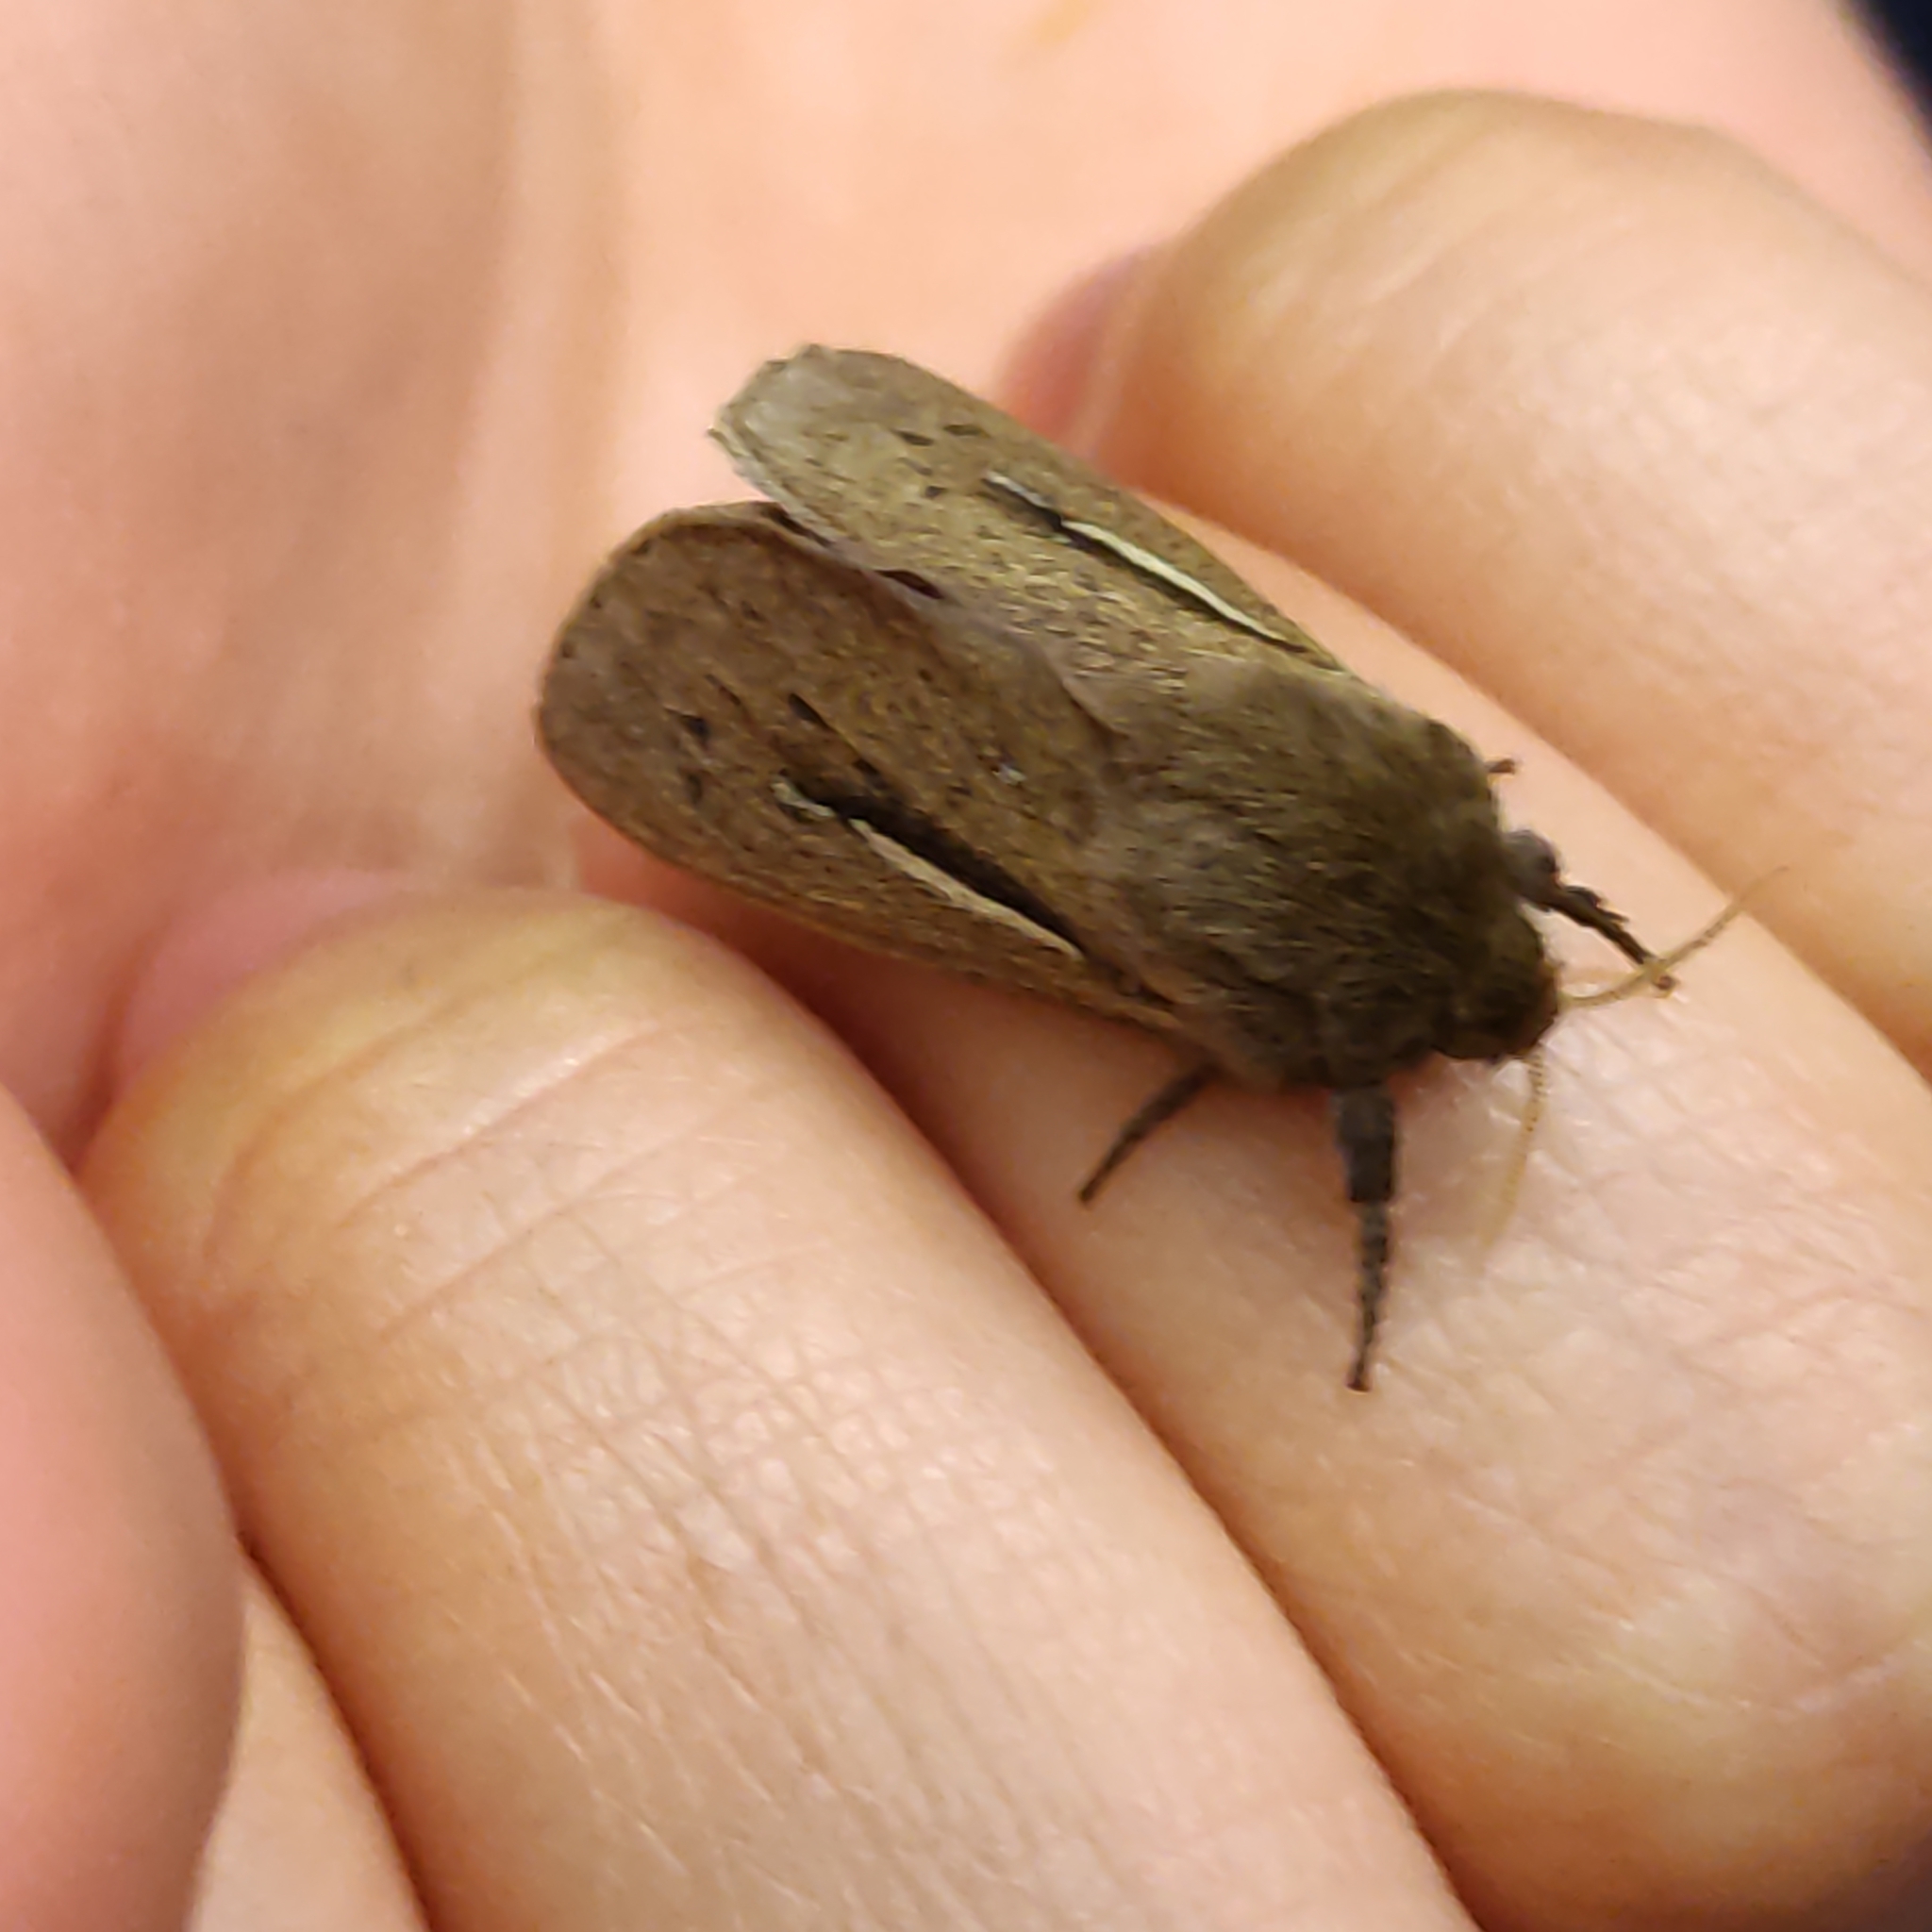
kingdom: Animalia
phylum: Arthropoda
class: Insecta
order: Lepidoptera
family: Hepialidae
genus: Wiseana
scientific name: Wiseana umbraculatus
